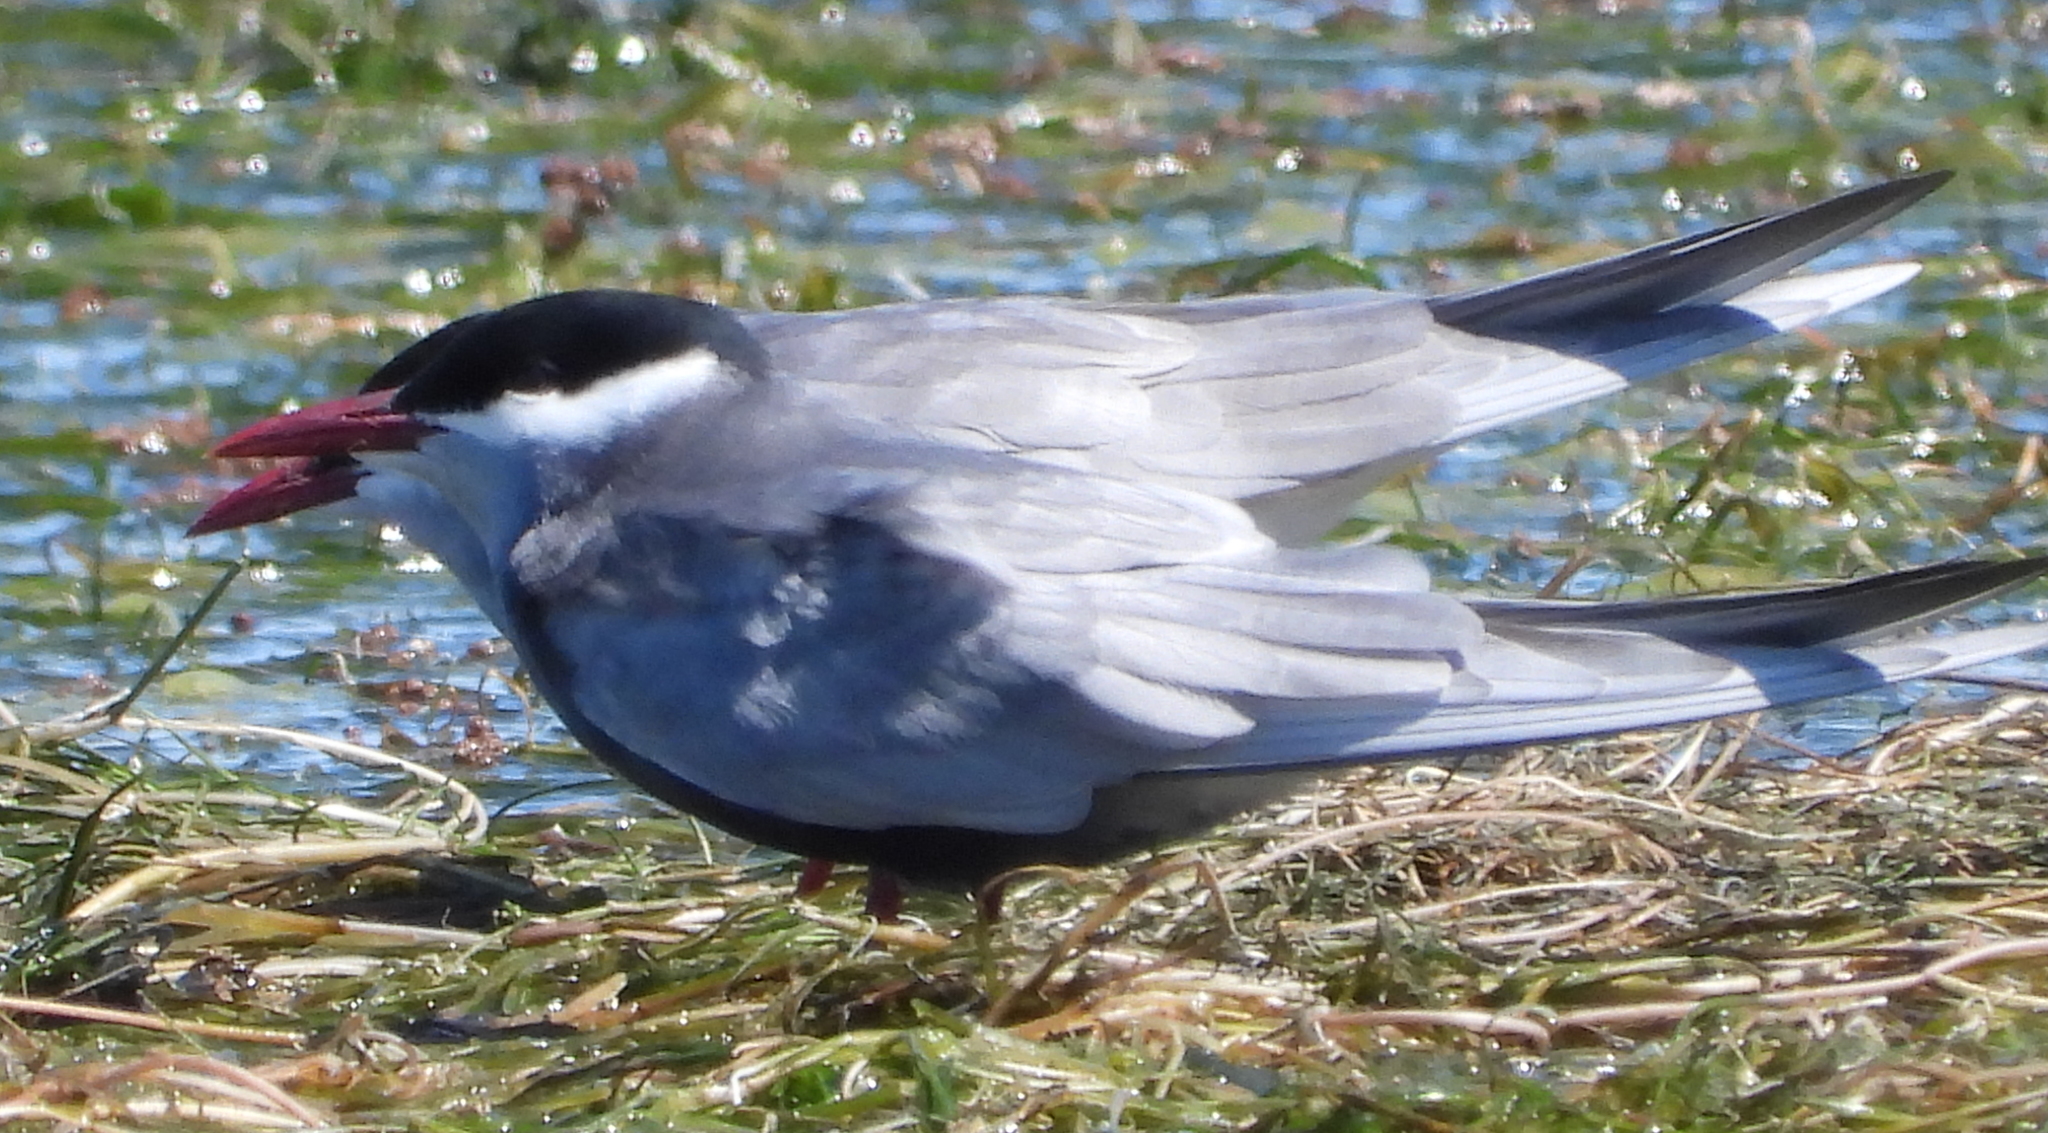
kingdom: Animalia
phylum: Chordata
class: Aves
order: Charadriiformes
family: Laridae
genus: Chlidonias
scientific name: Chlidonias hybrida
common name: Whiskered tern
